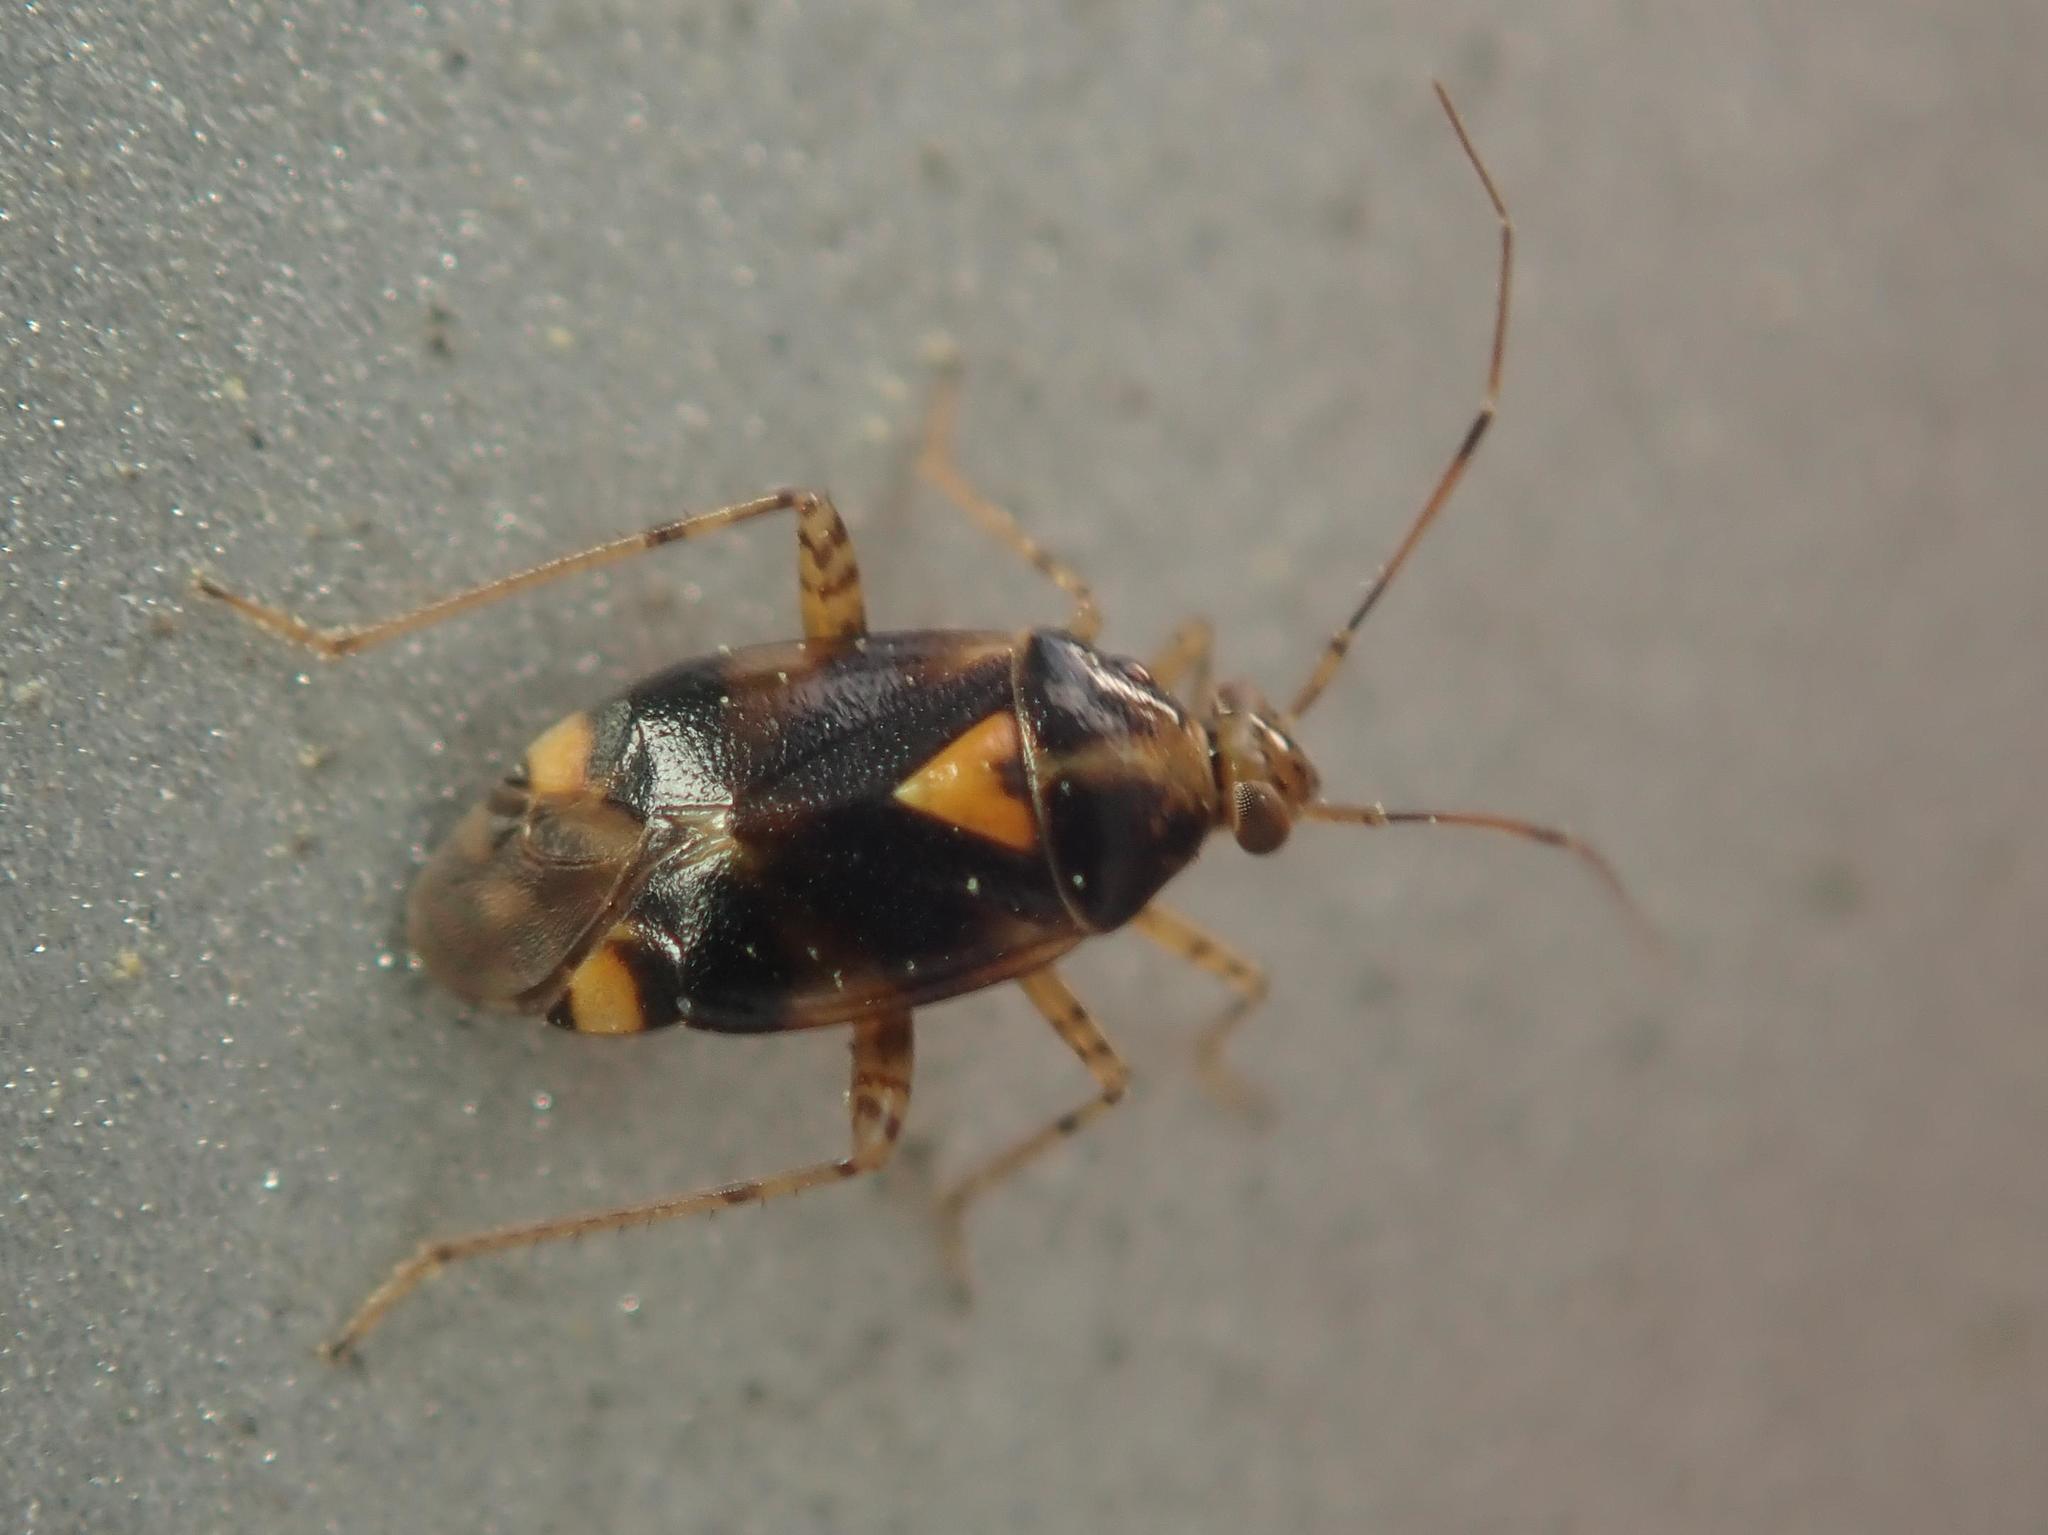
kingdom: Animalia
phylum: Arthropoda
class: Insecta
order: Hemiptera
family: Miridae
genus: Liocoris
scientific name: Liocoris tripustulatus
